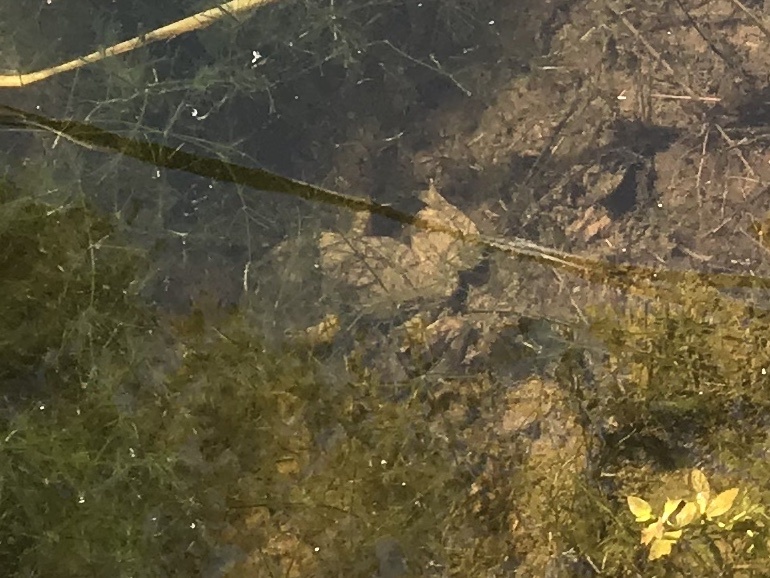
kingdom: Animalia
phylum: Chordata
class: Amphibia
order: Anura
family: Ranidae
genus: Lithobates
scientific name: Lithobates
